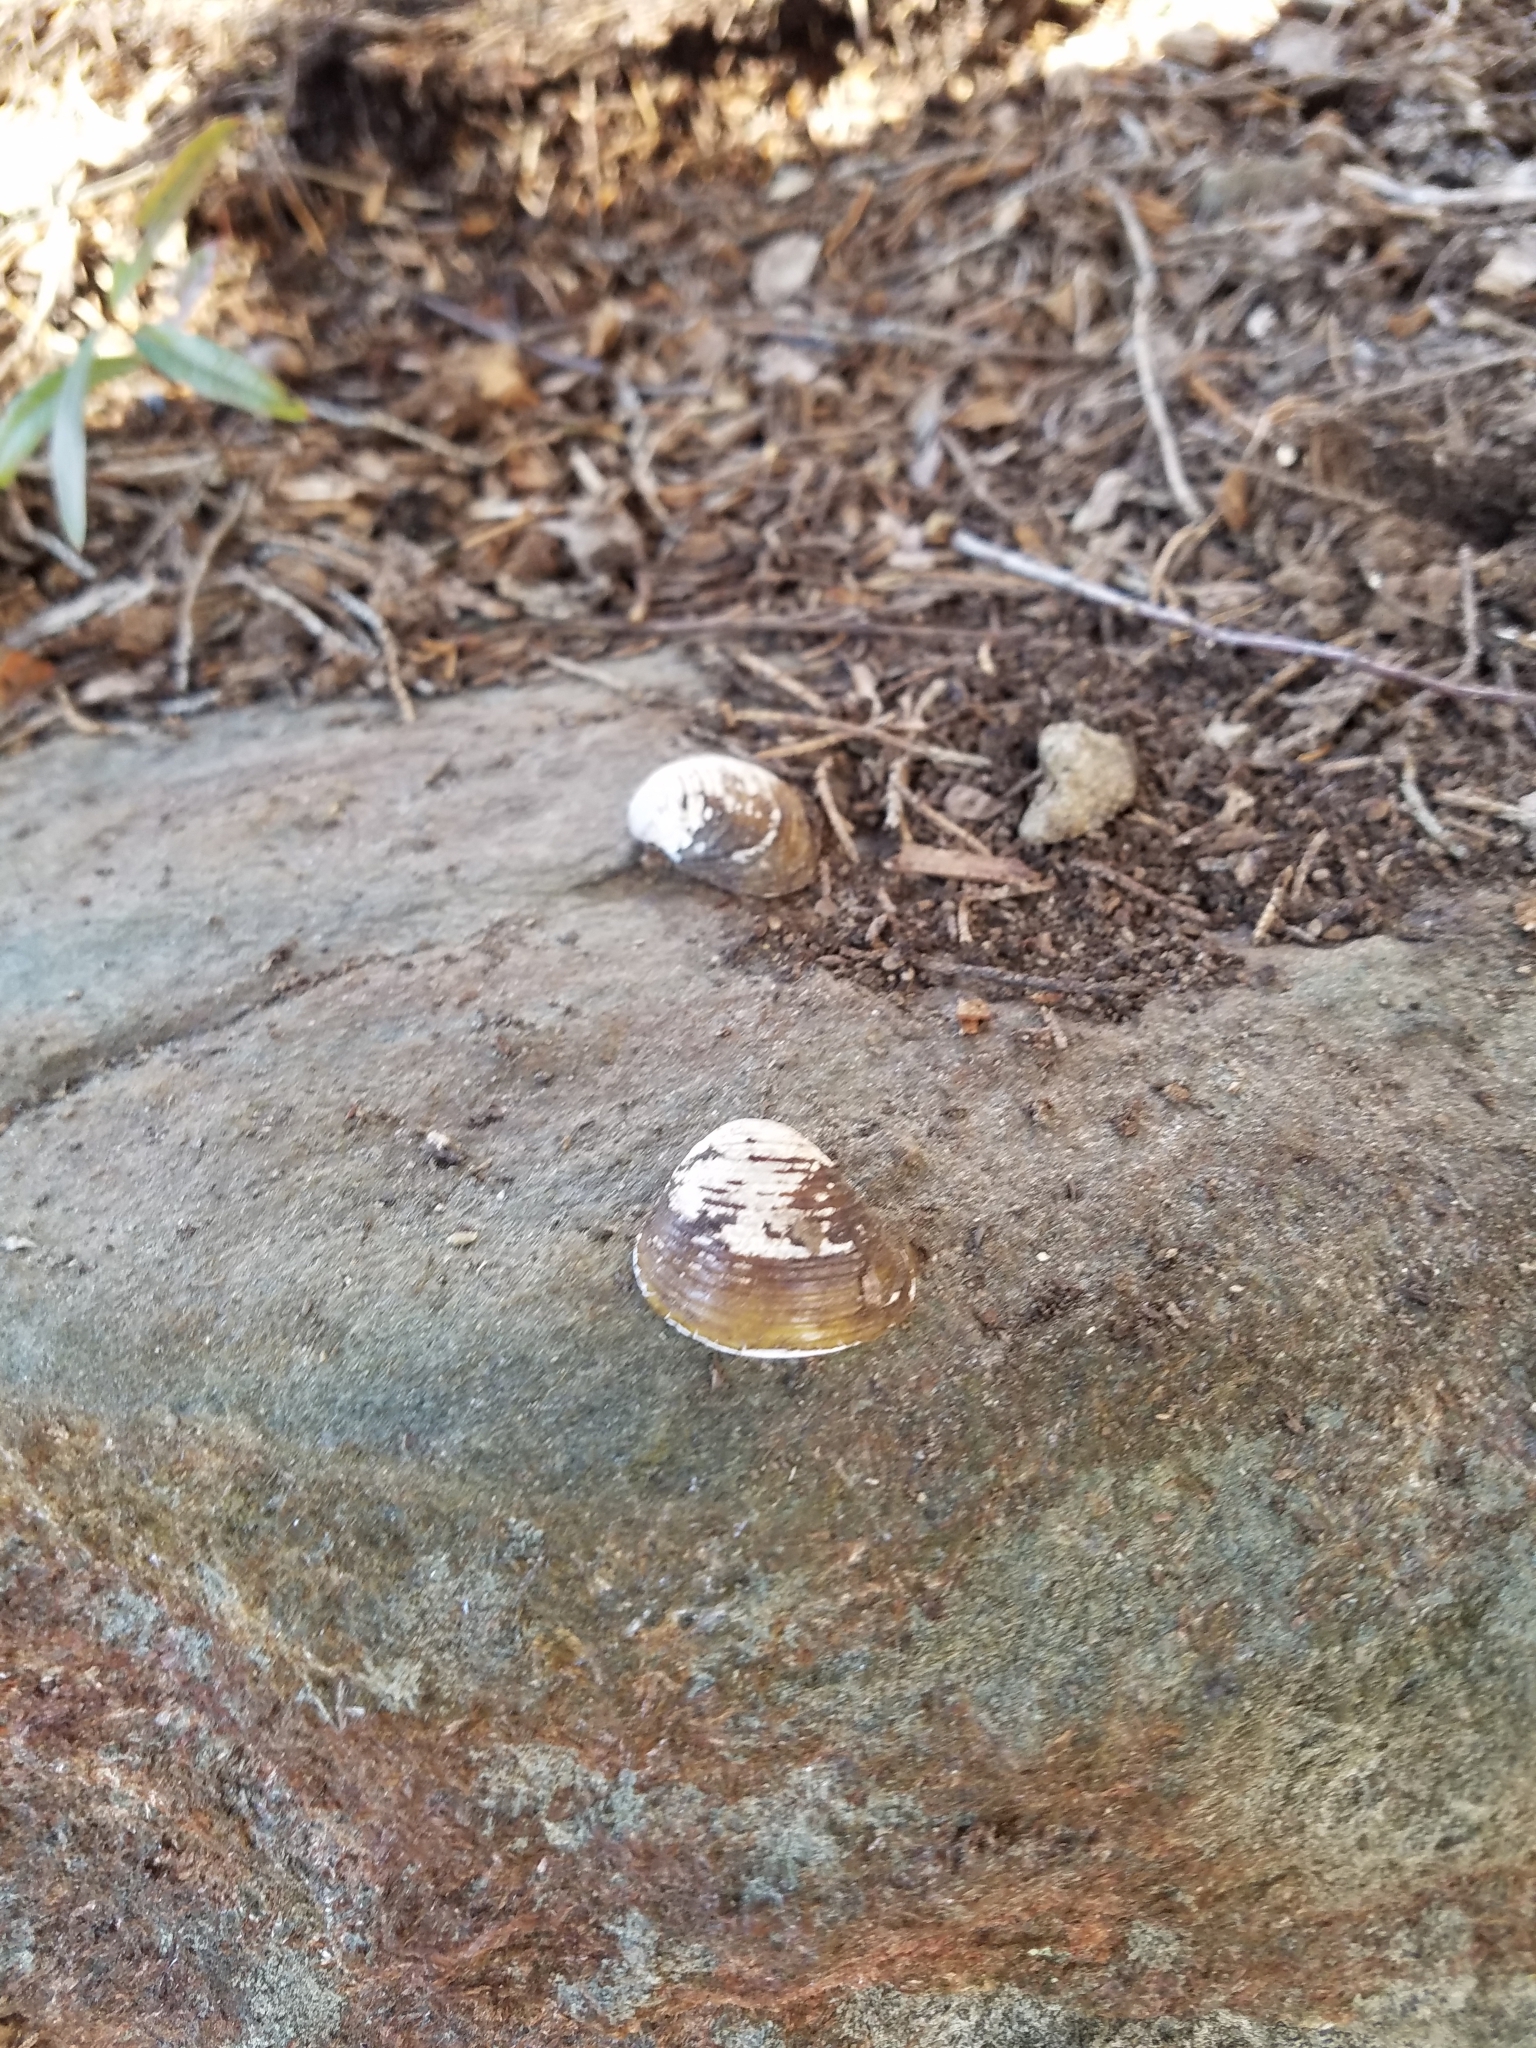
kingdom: Animalia
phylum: Mollusca
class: Bivalvia
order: Venerida
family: Cyrenidae
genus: Corbicula
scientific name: Corbicula fluminea
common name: Asian clam
